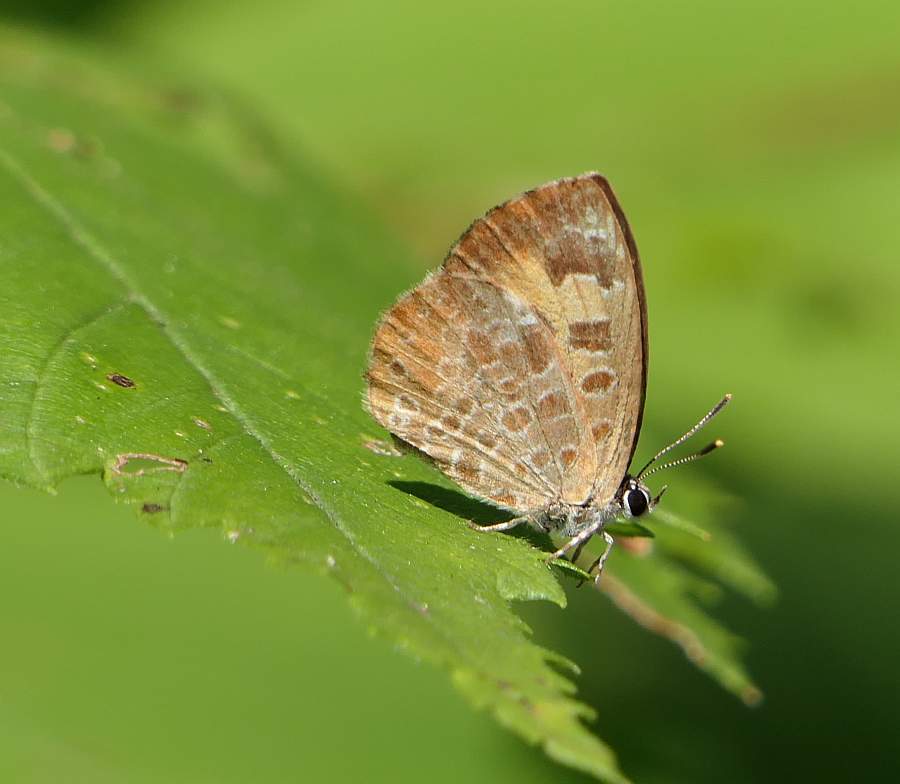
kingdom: Animalia
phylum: Arthropoda
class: Insecta
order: Lepidoptera
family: Lycaenidae
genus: Feniseca
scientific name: Feniseca tarquinius
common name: Harvester
